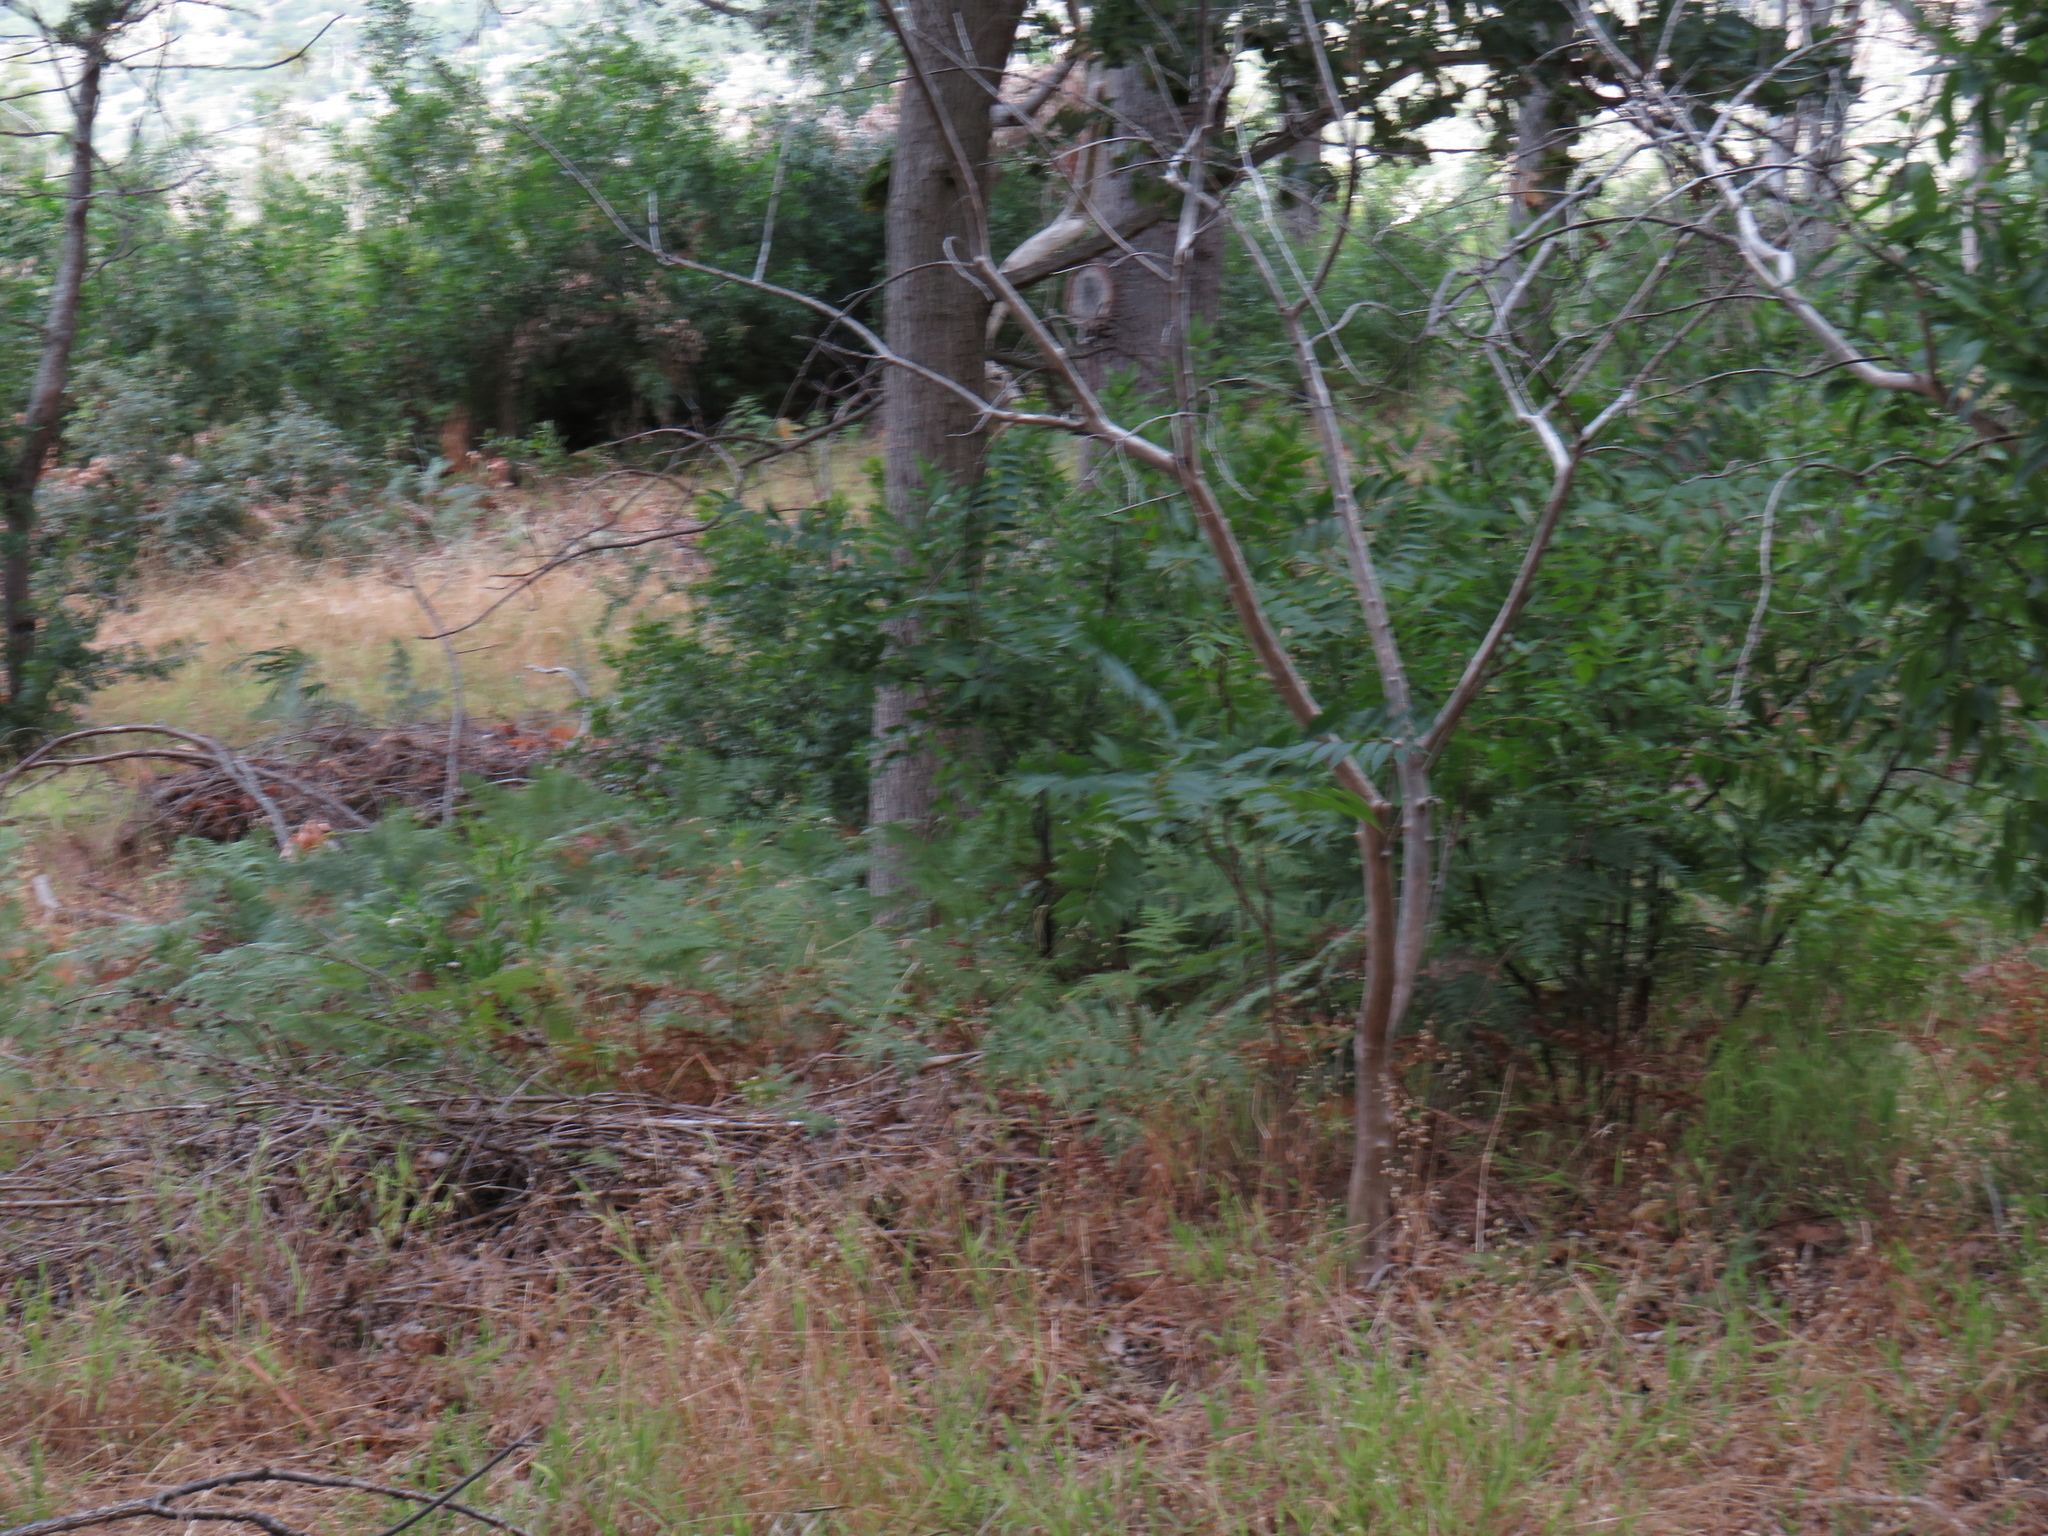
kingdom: Plantae
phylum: Tracheophyta
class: Magnoliopsida
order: Sapindales
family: Simaroubaceae
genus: Ailanthus
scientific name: Ailanthus altissima
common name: Tree-of-heaven
